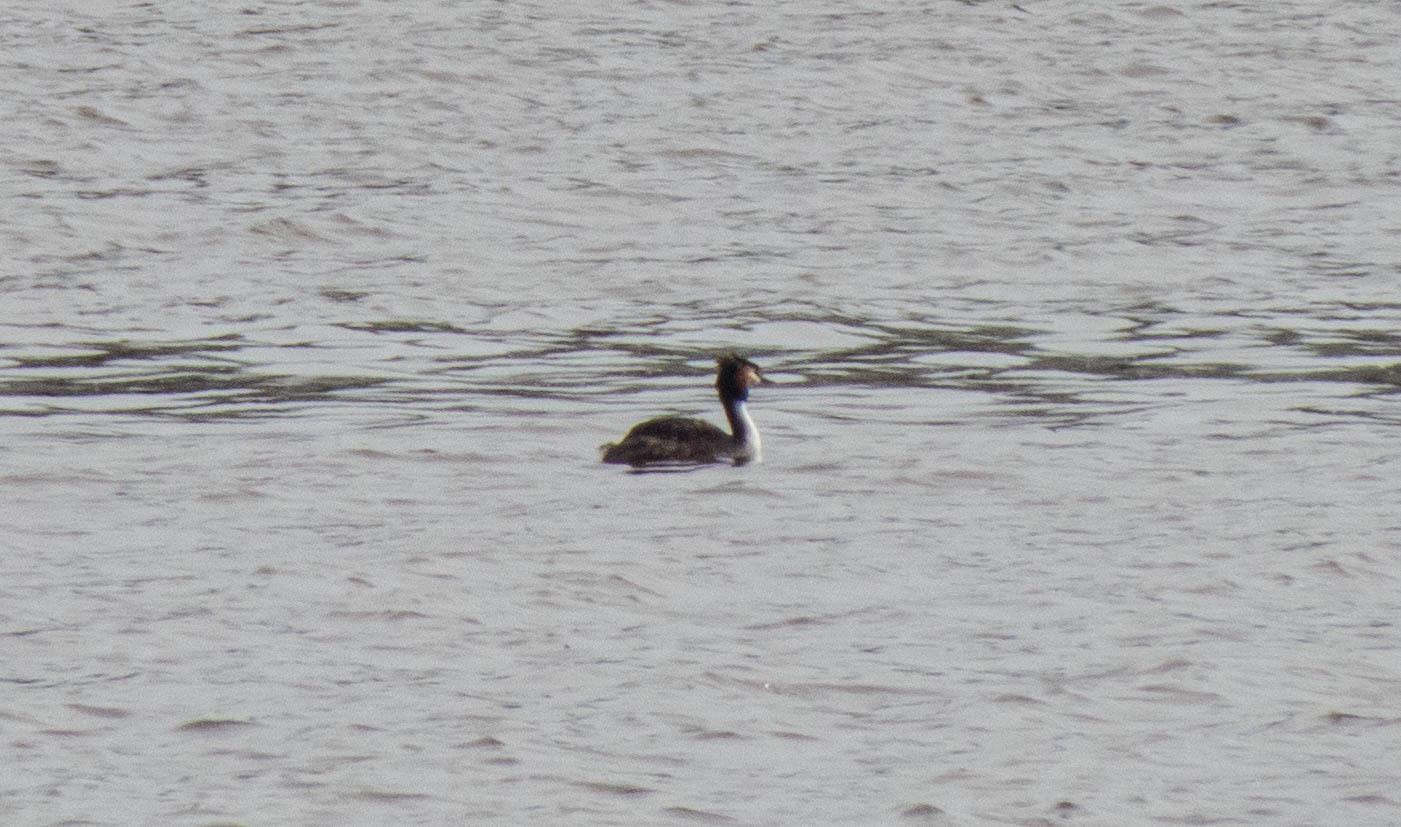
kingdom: Animalia
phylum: Chordata
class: Aves
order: Podicipediformes
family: Podicipedidae
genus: Podiceps
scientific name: Podiceps cristatus
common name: Great crested grebe
